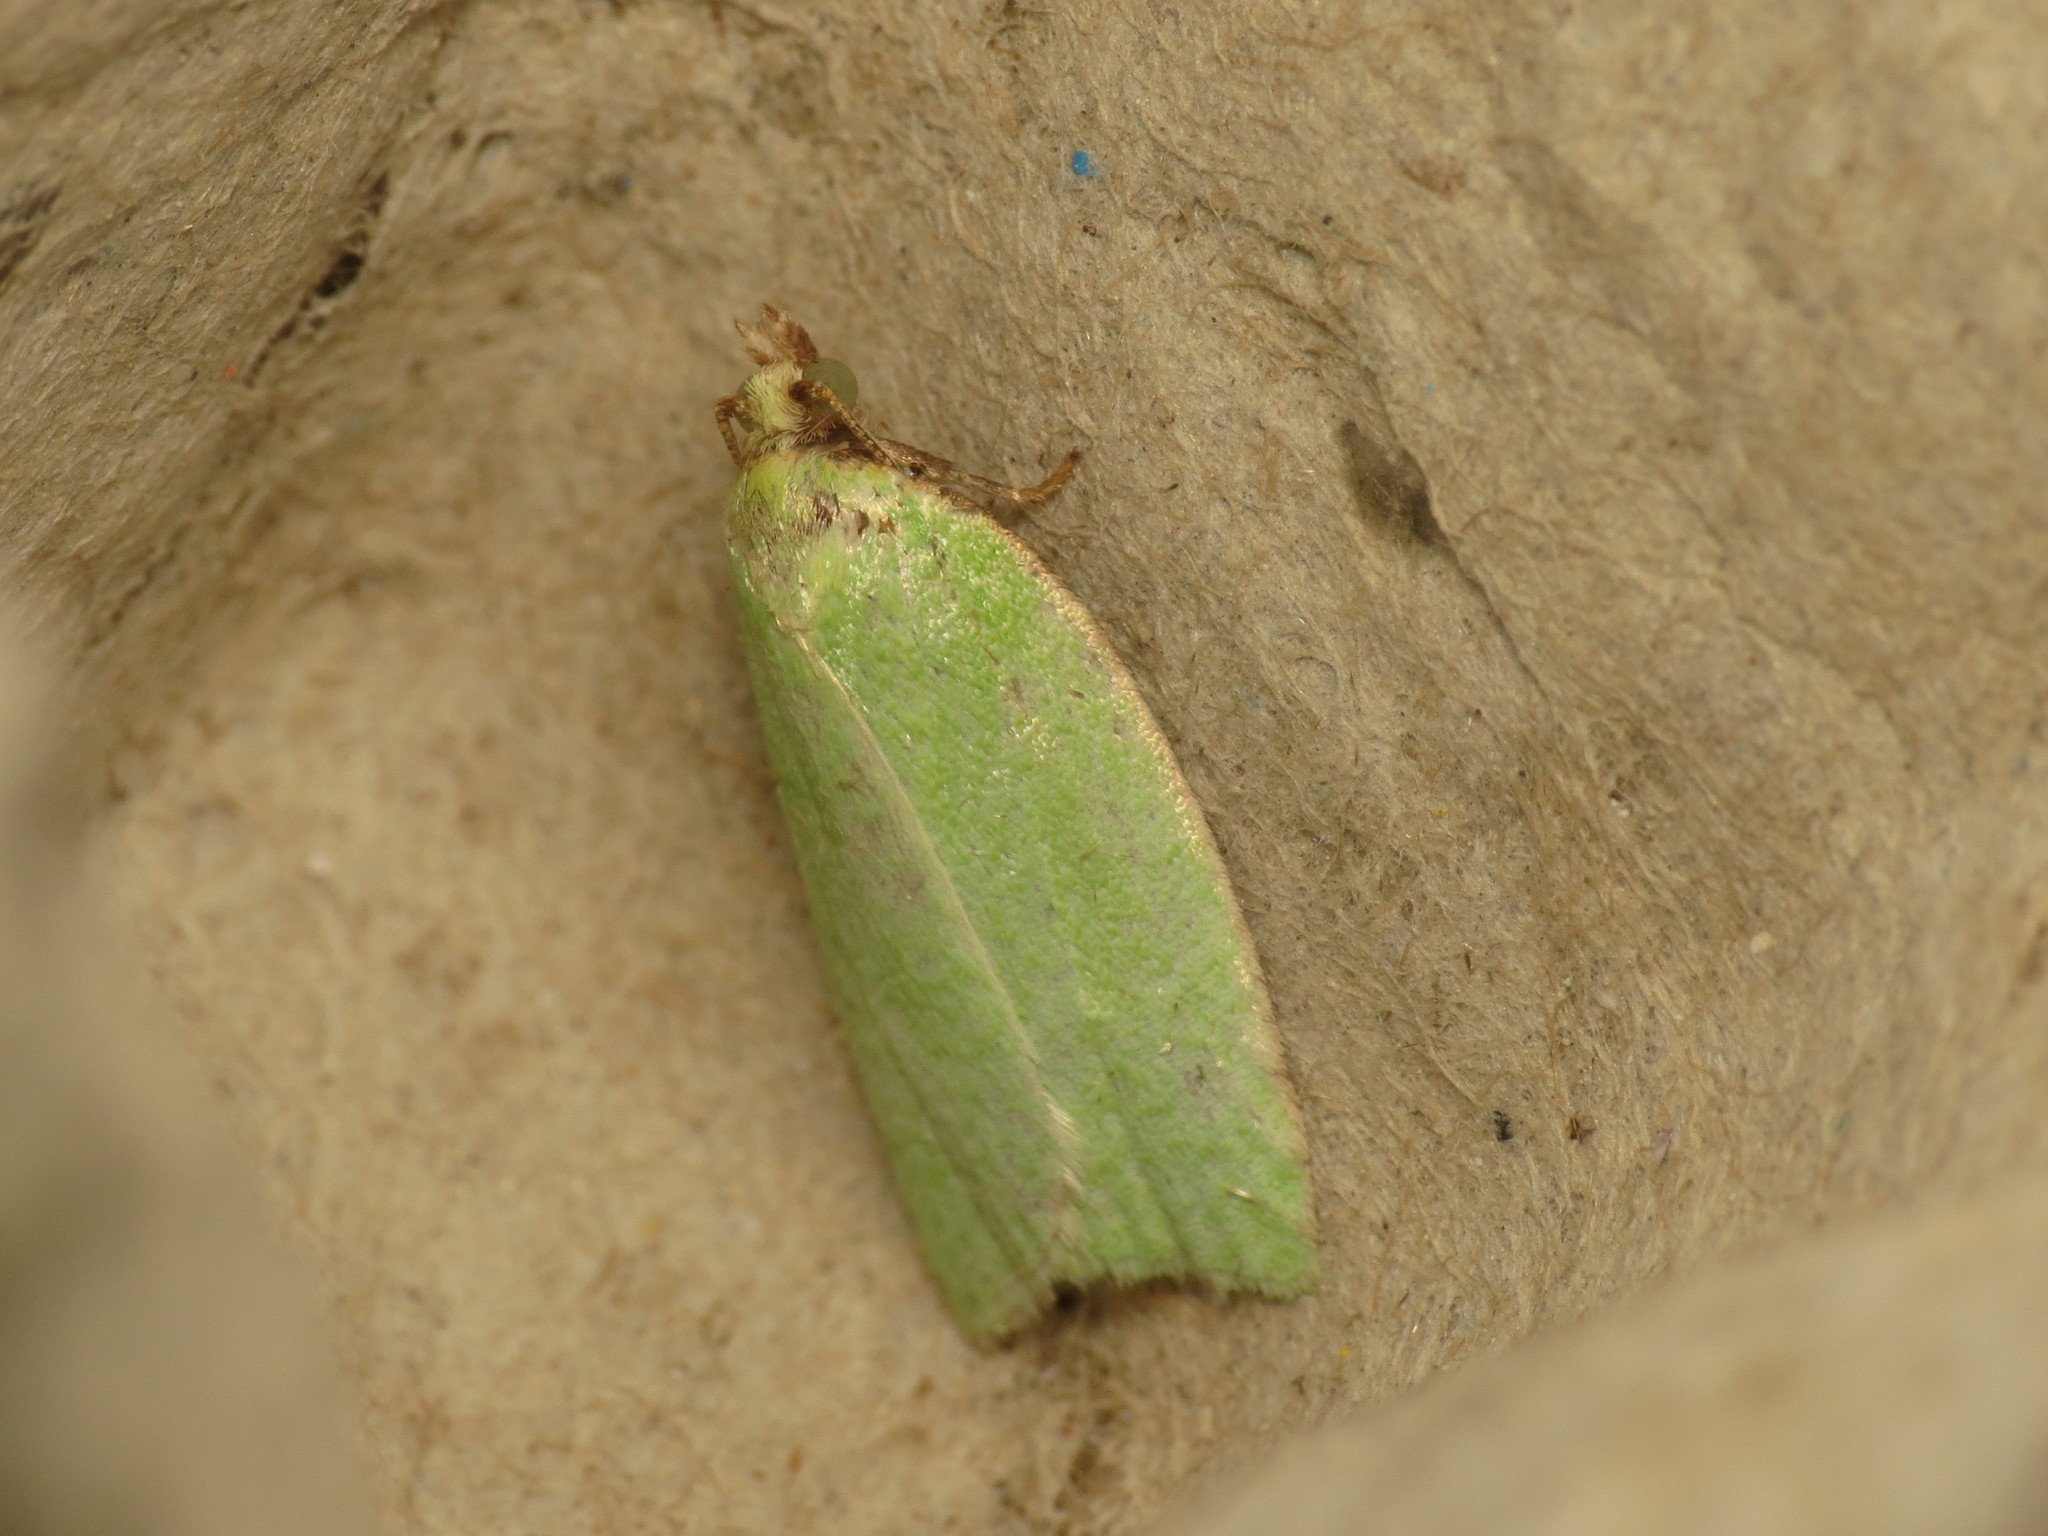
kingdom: Animalia
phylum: Arthropoda
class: Insecta
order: Lepidoptera
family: Tortricidae
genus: Tortrix
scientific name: Tortrix viridana
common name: Green oak tortrix
